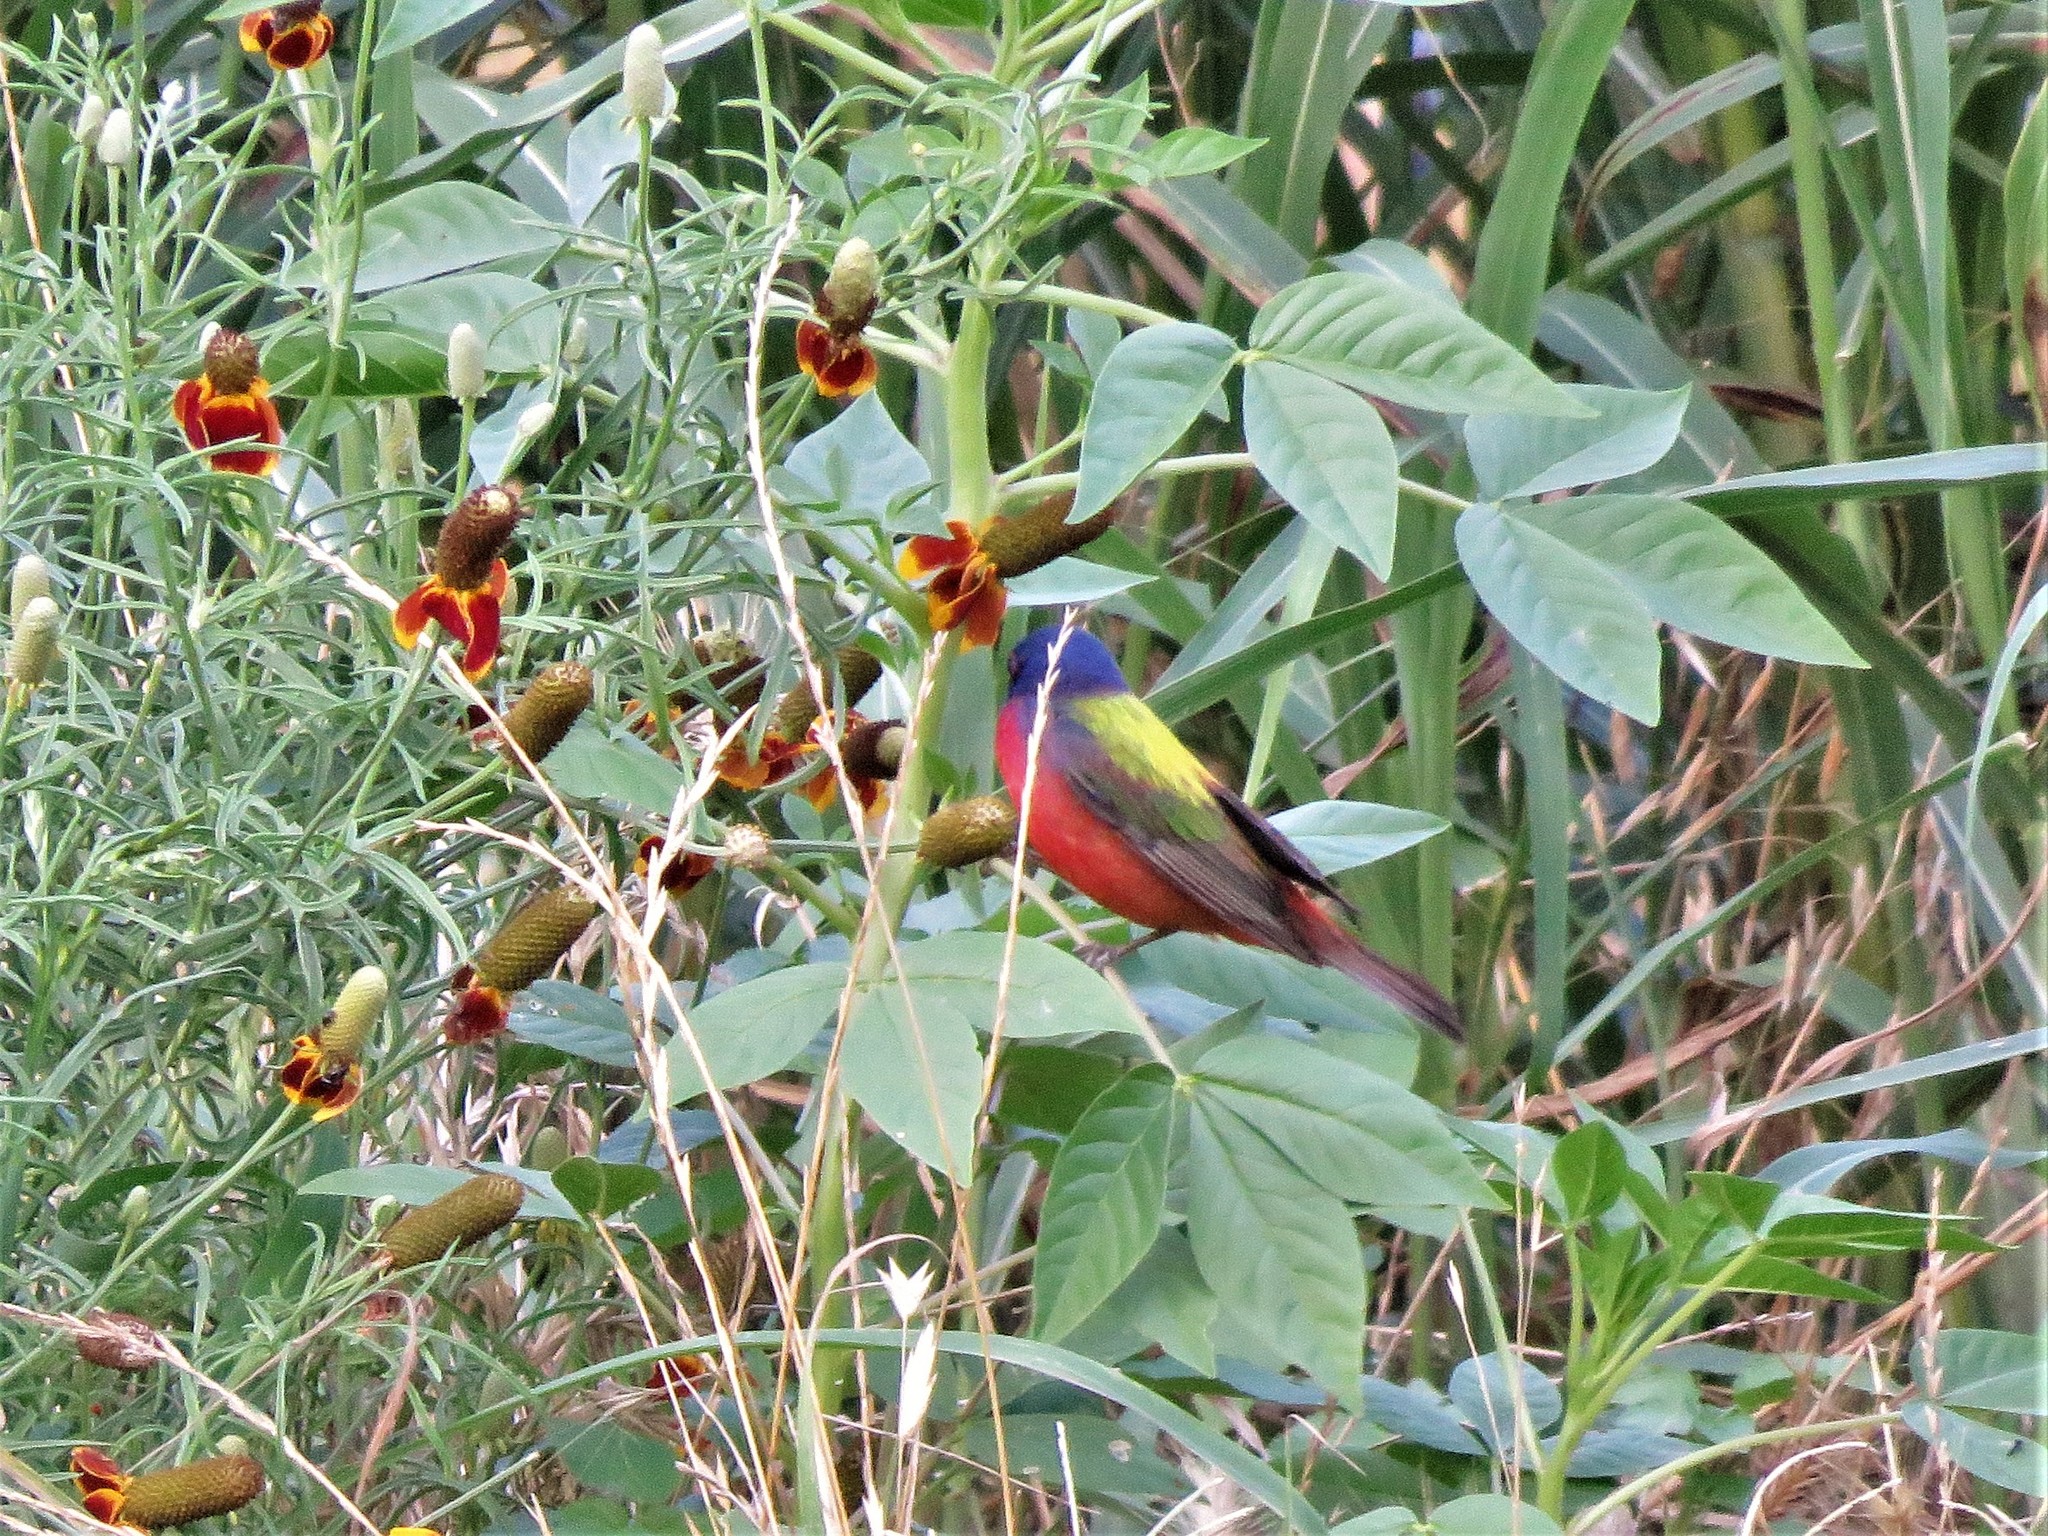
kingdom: Animalia
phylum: Chordata
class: Aves
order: Passeriformes
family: Cardinalidae
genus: Passerina
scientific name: Passerina ciris
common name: Painted bunting
